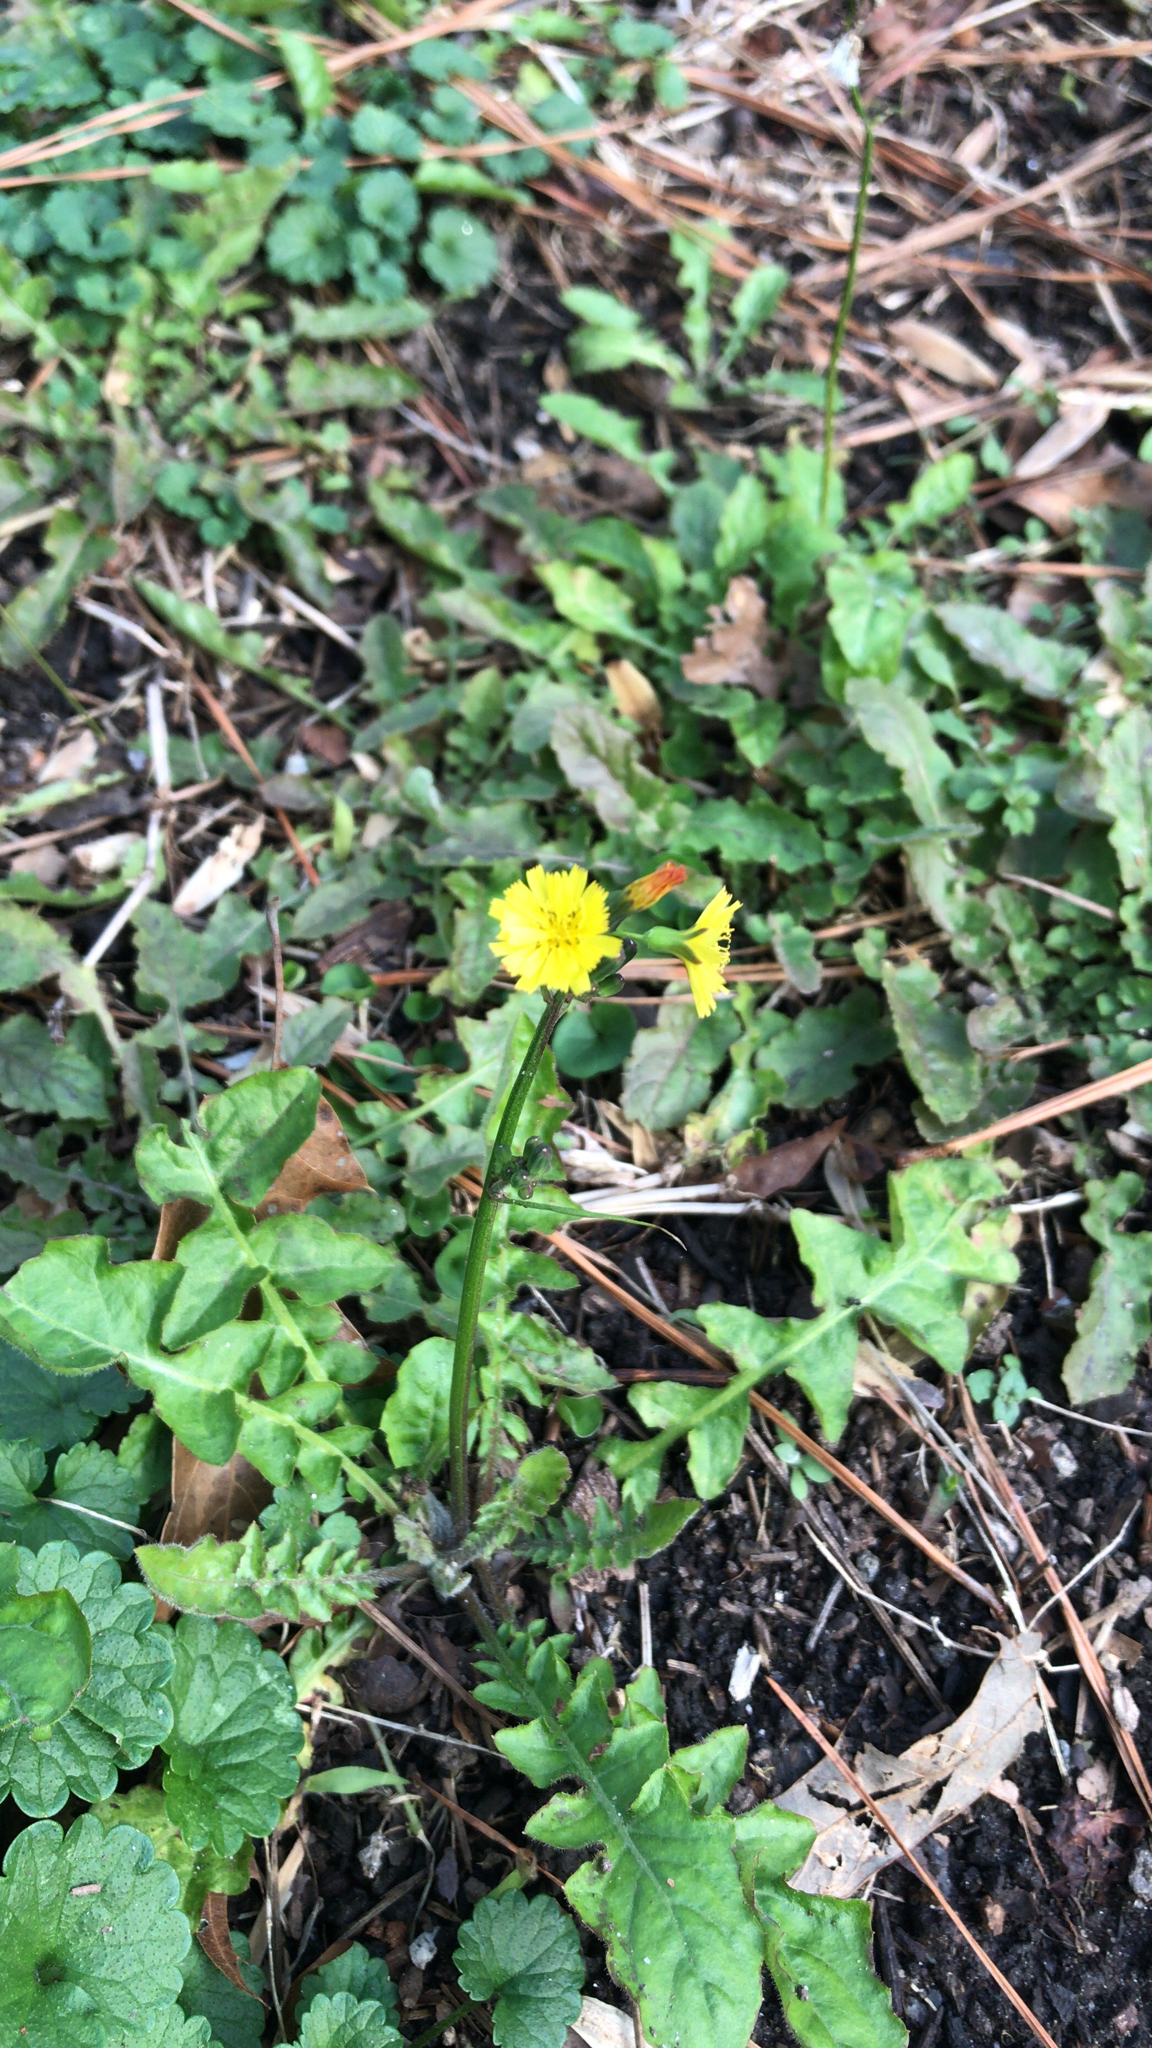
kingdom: Plantae
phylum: Tracheophyta
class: Magnoliopsida
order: Asterales
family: Asteraceae
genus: Youngia
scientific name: Youngia japonica
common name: Oriental false hawksbeard
